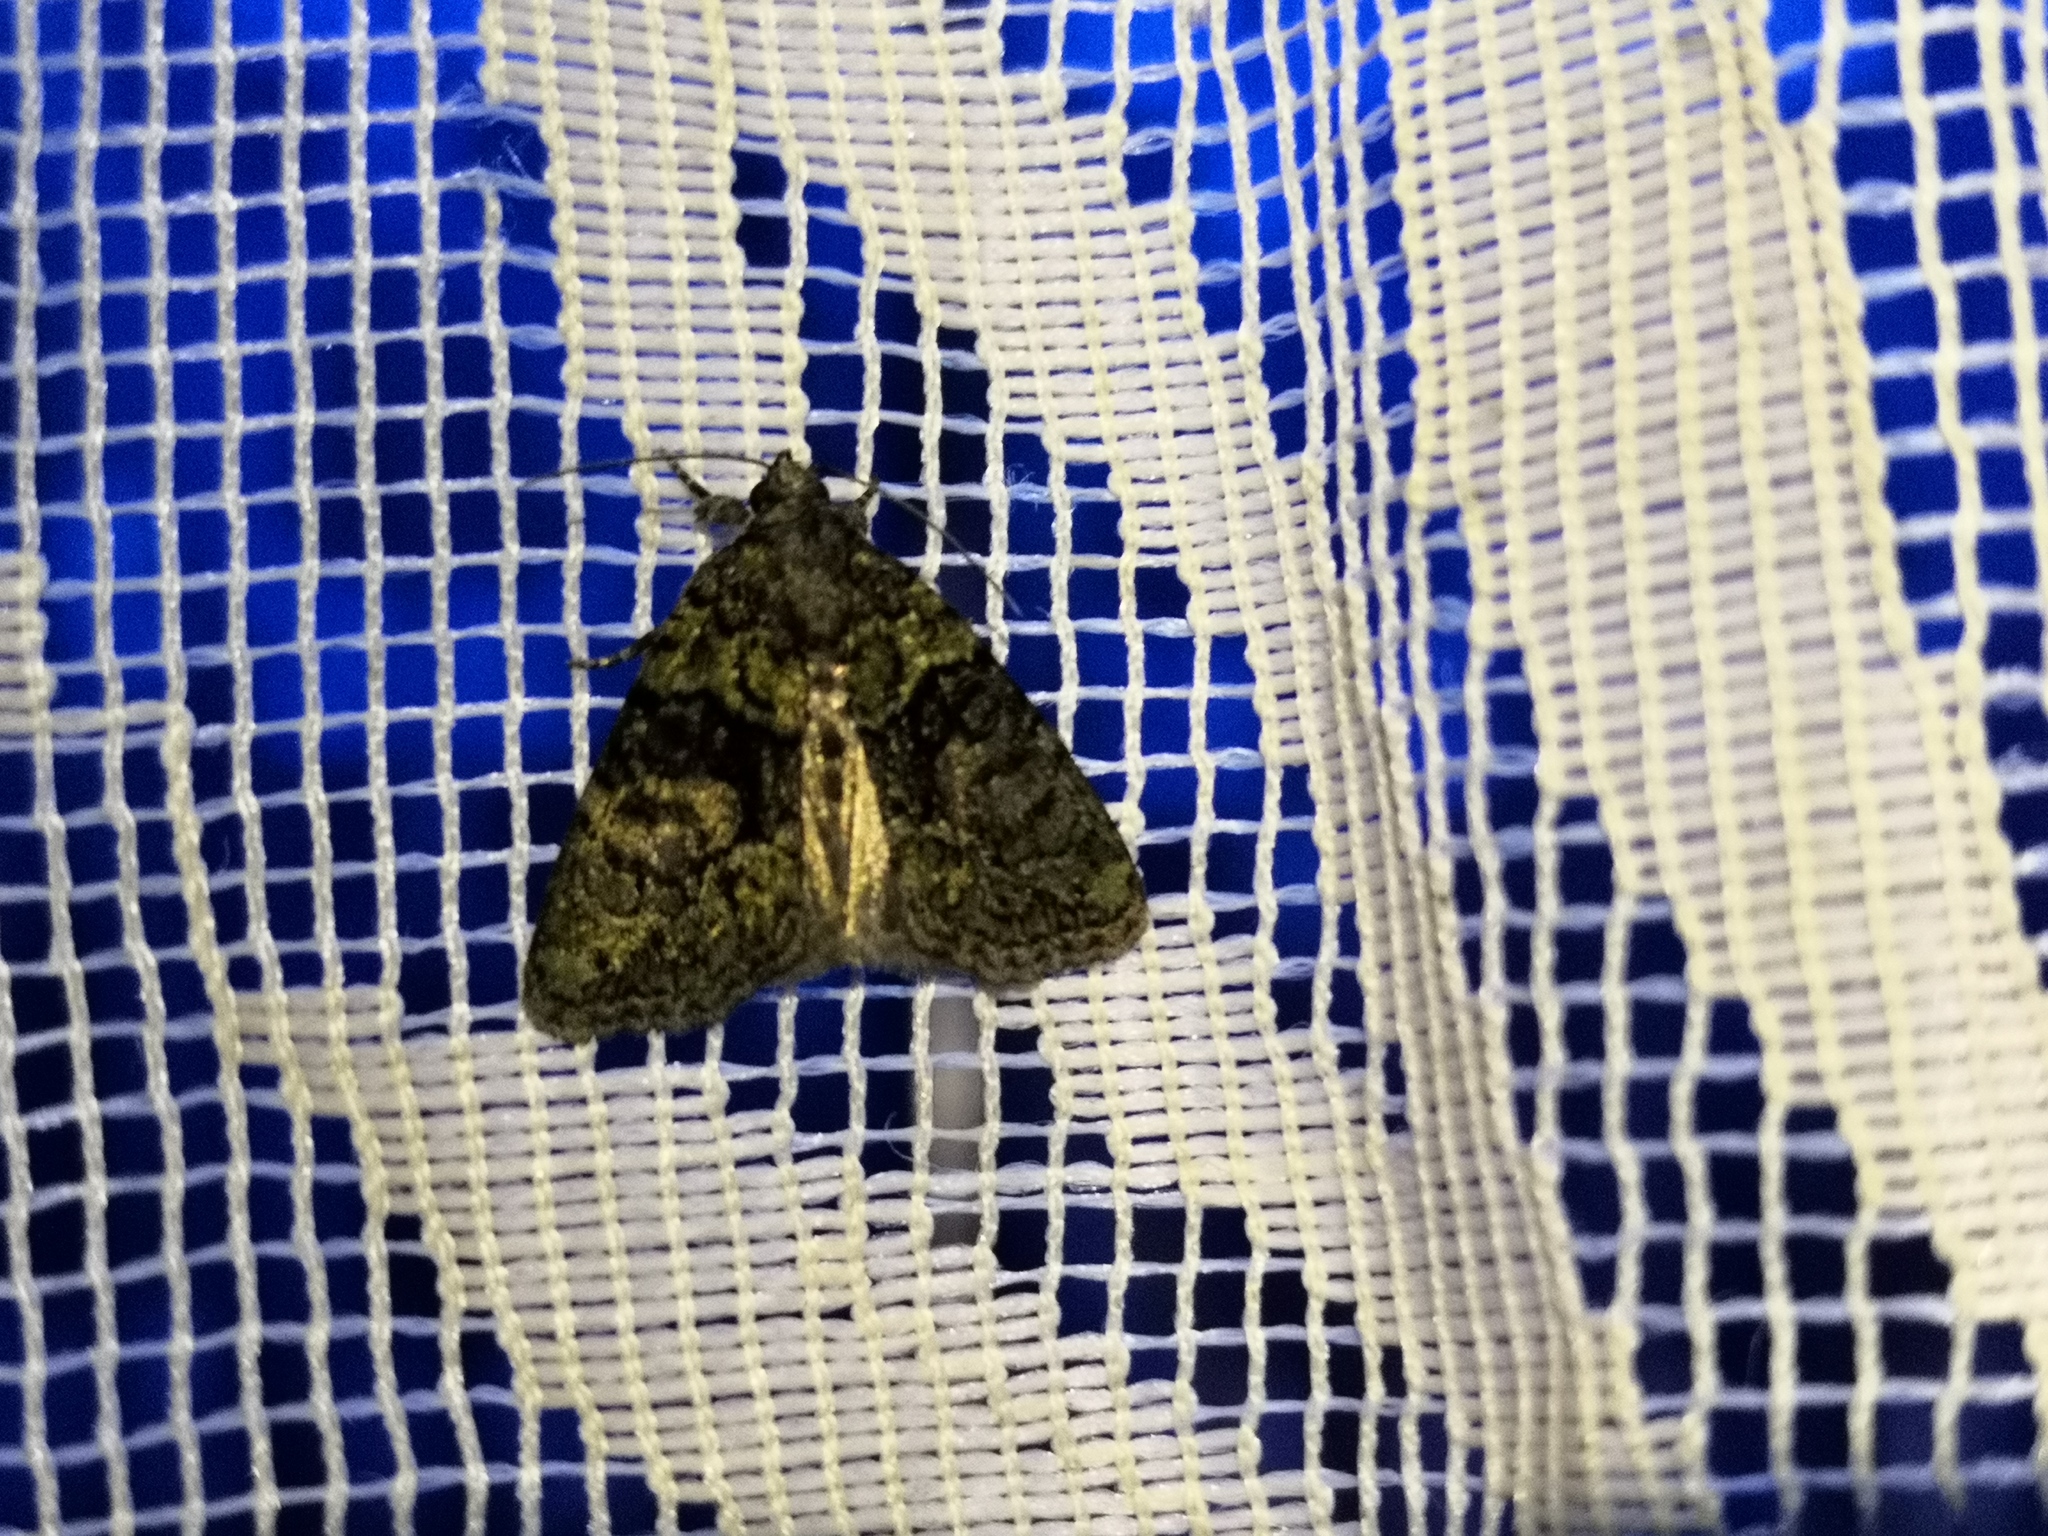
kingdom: Animalia
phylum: Arthropoda
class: Insecta
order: Lepidoptera
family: Noctuidae
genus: Cryphia
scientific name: Cryphia algae
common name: Tree-lichen beauty
